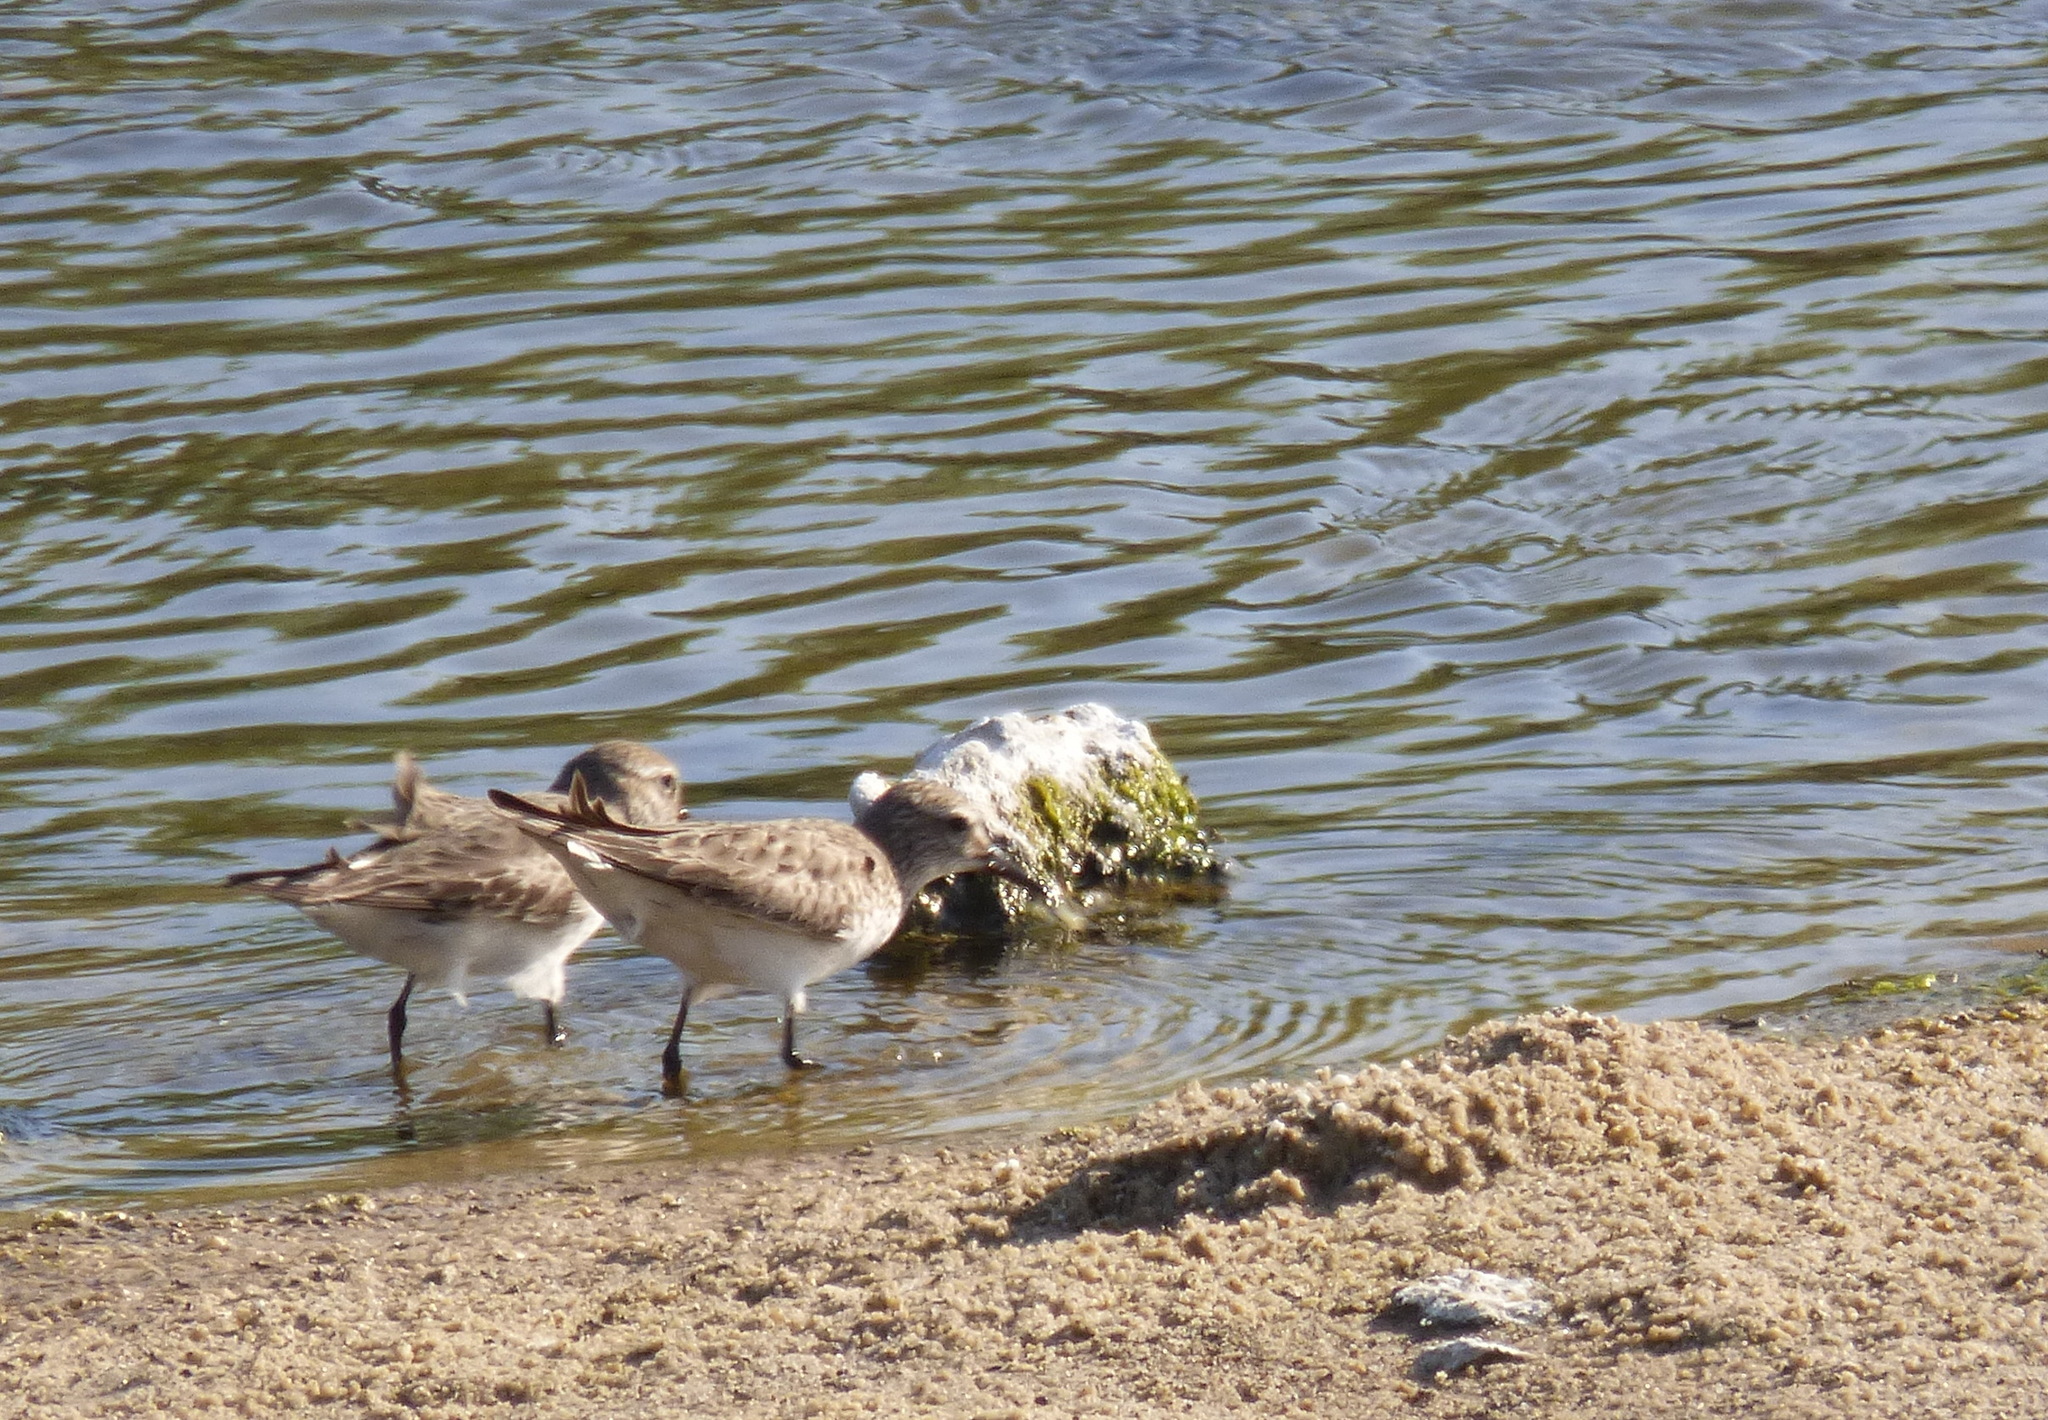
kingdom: Animalia
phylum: Chordata
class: Aves
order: Charadriiformes
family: Scolopacidae
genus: Calidris
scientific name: Calidris fuscicollis
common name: White-rumped sandpiper
